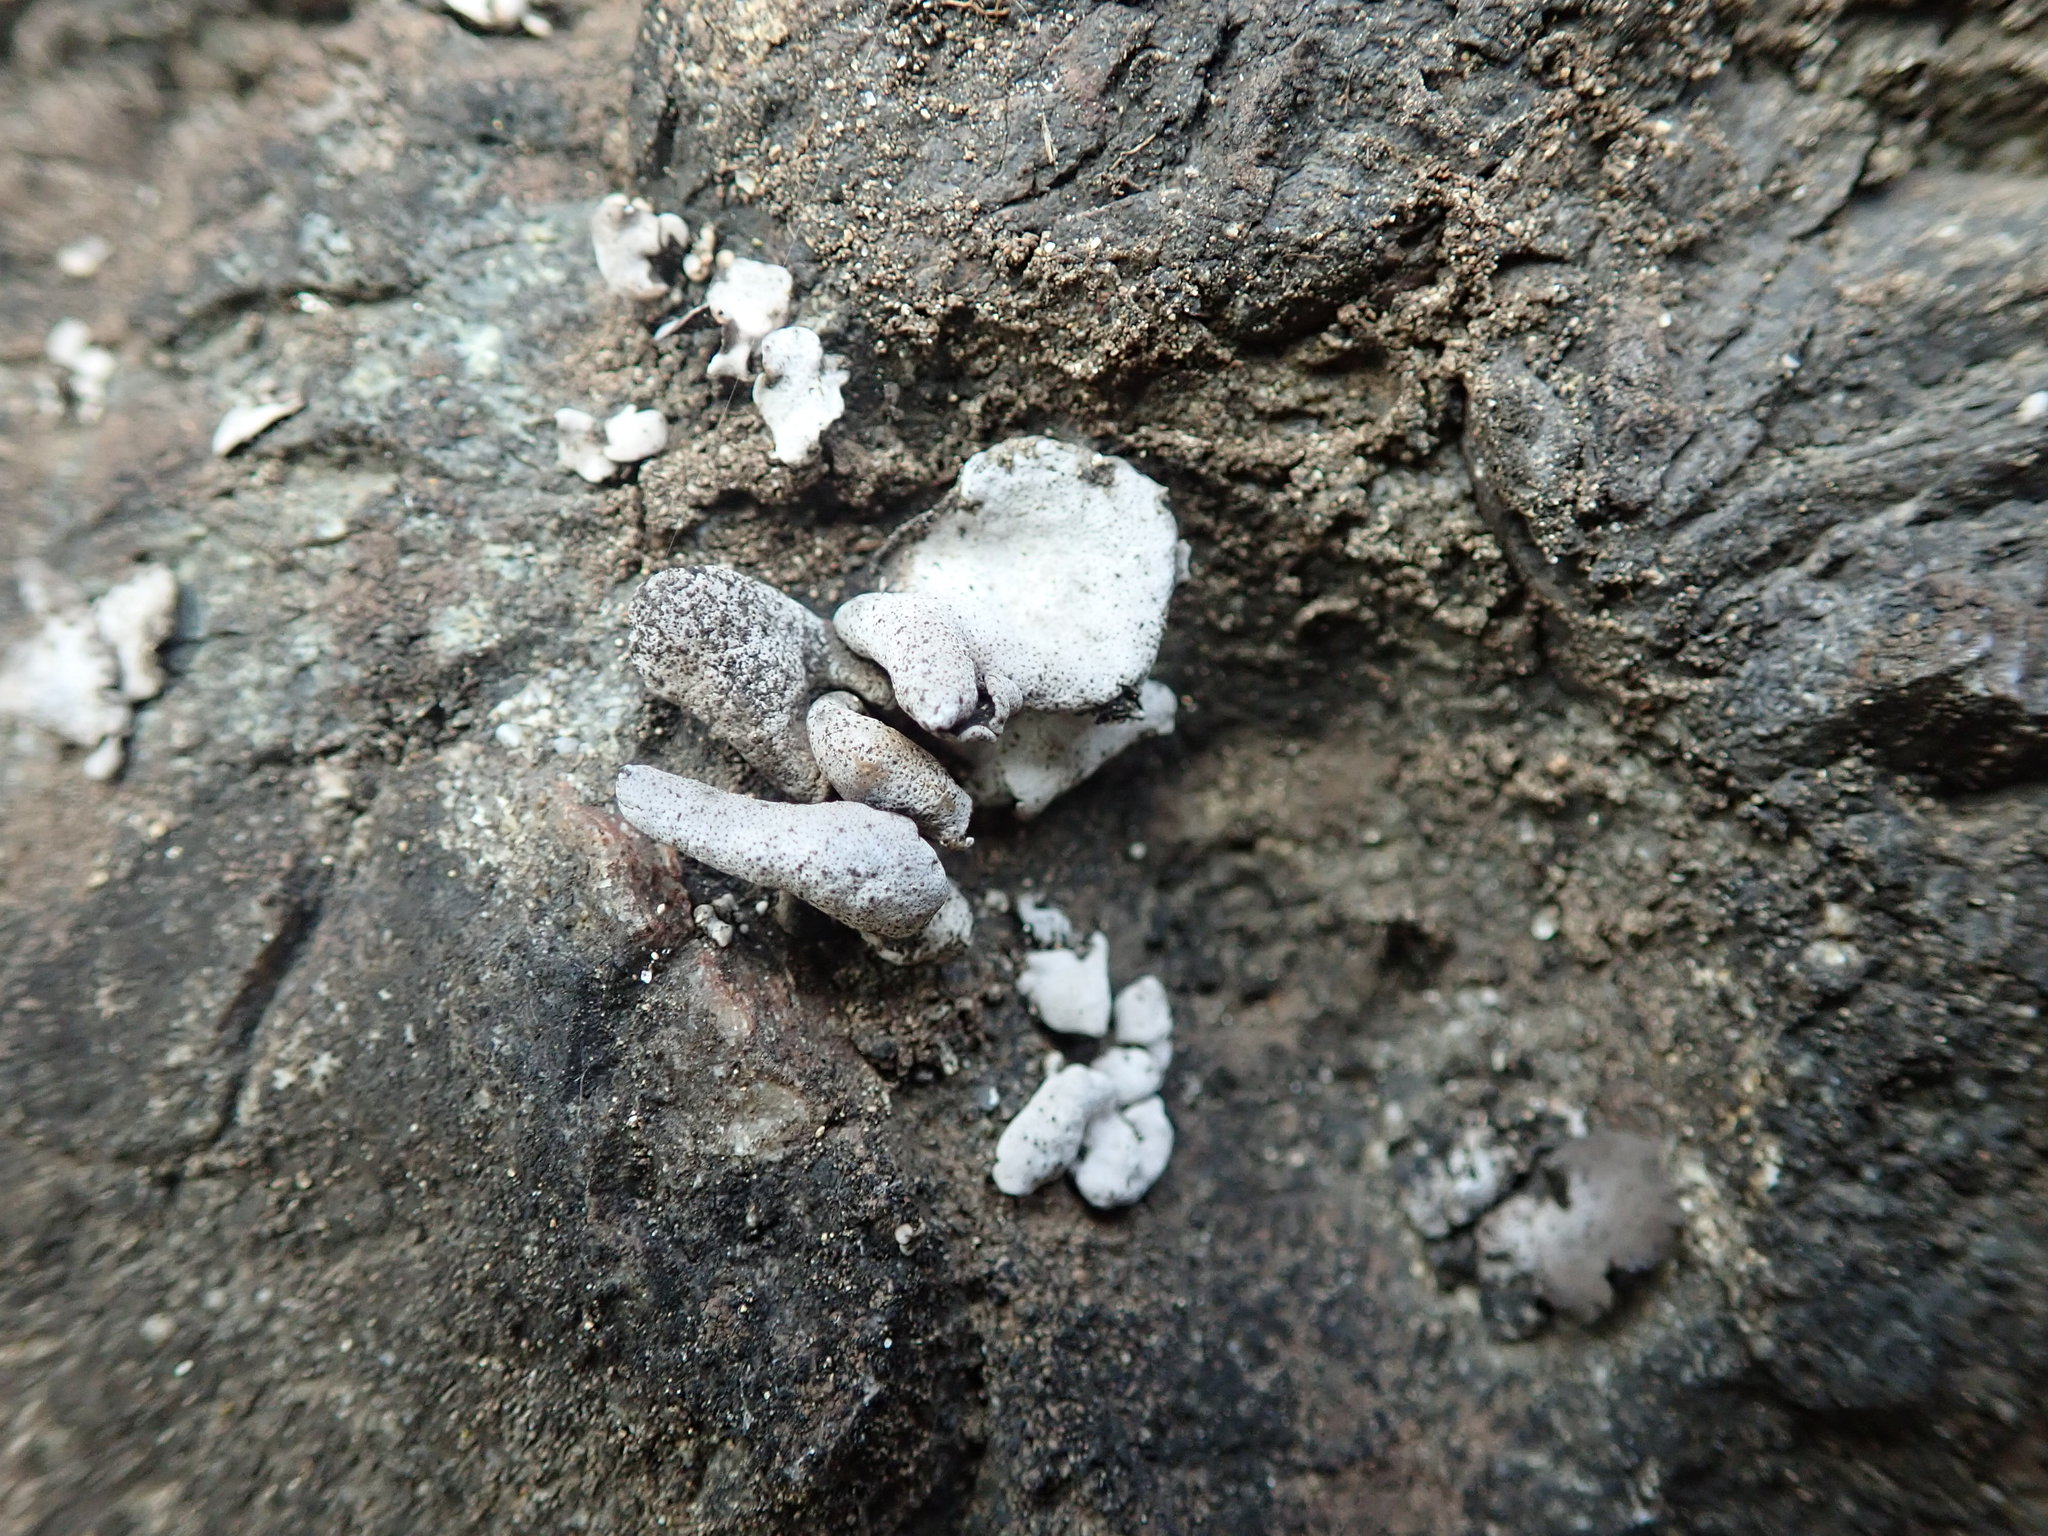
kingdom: Fungi
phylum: Ascomycota
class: Eurotiomycetes
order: Verrucariales
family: Verrucariaceae
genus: Dermatocarpon
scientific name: Dermatocarpon reticulatum
